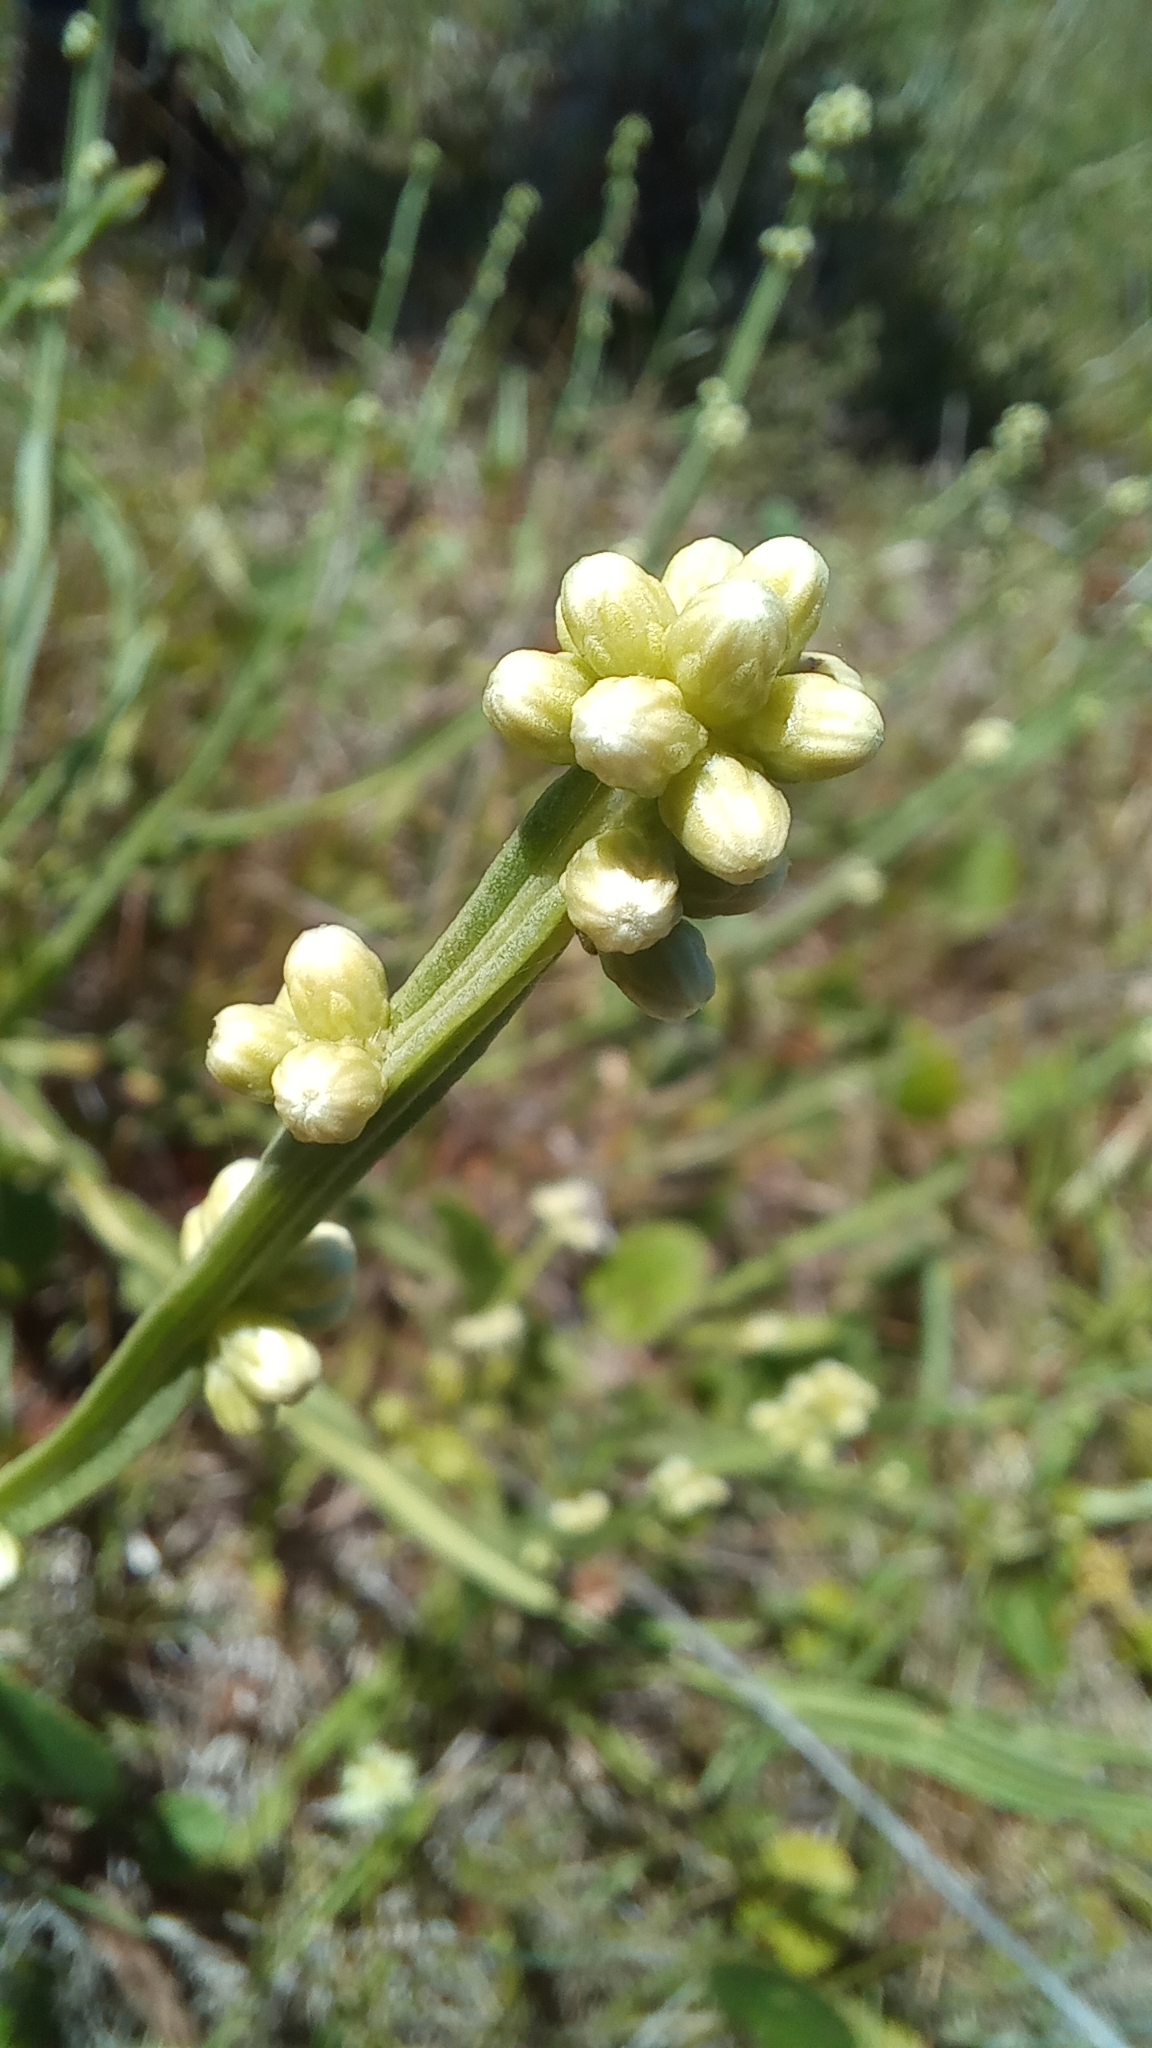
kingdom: Plantae
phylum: Tracheophyta
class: Magnoliopsida
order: Asterales
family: Asteraceae
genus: Baccharis
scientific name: Baccharis subtropicalis
